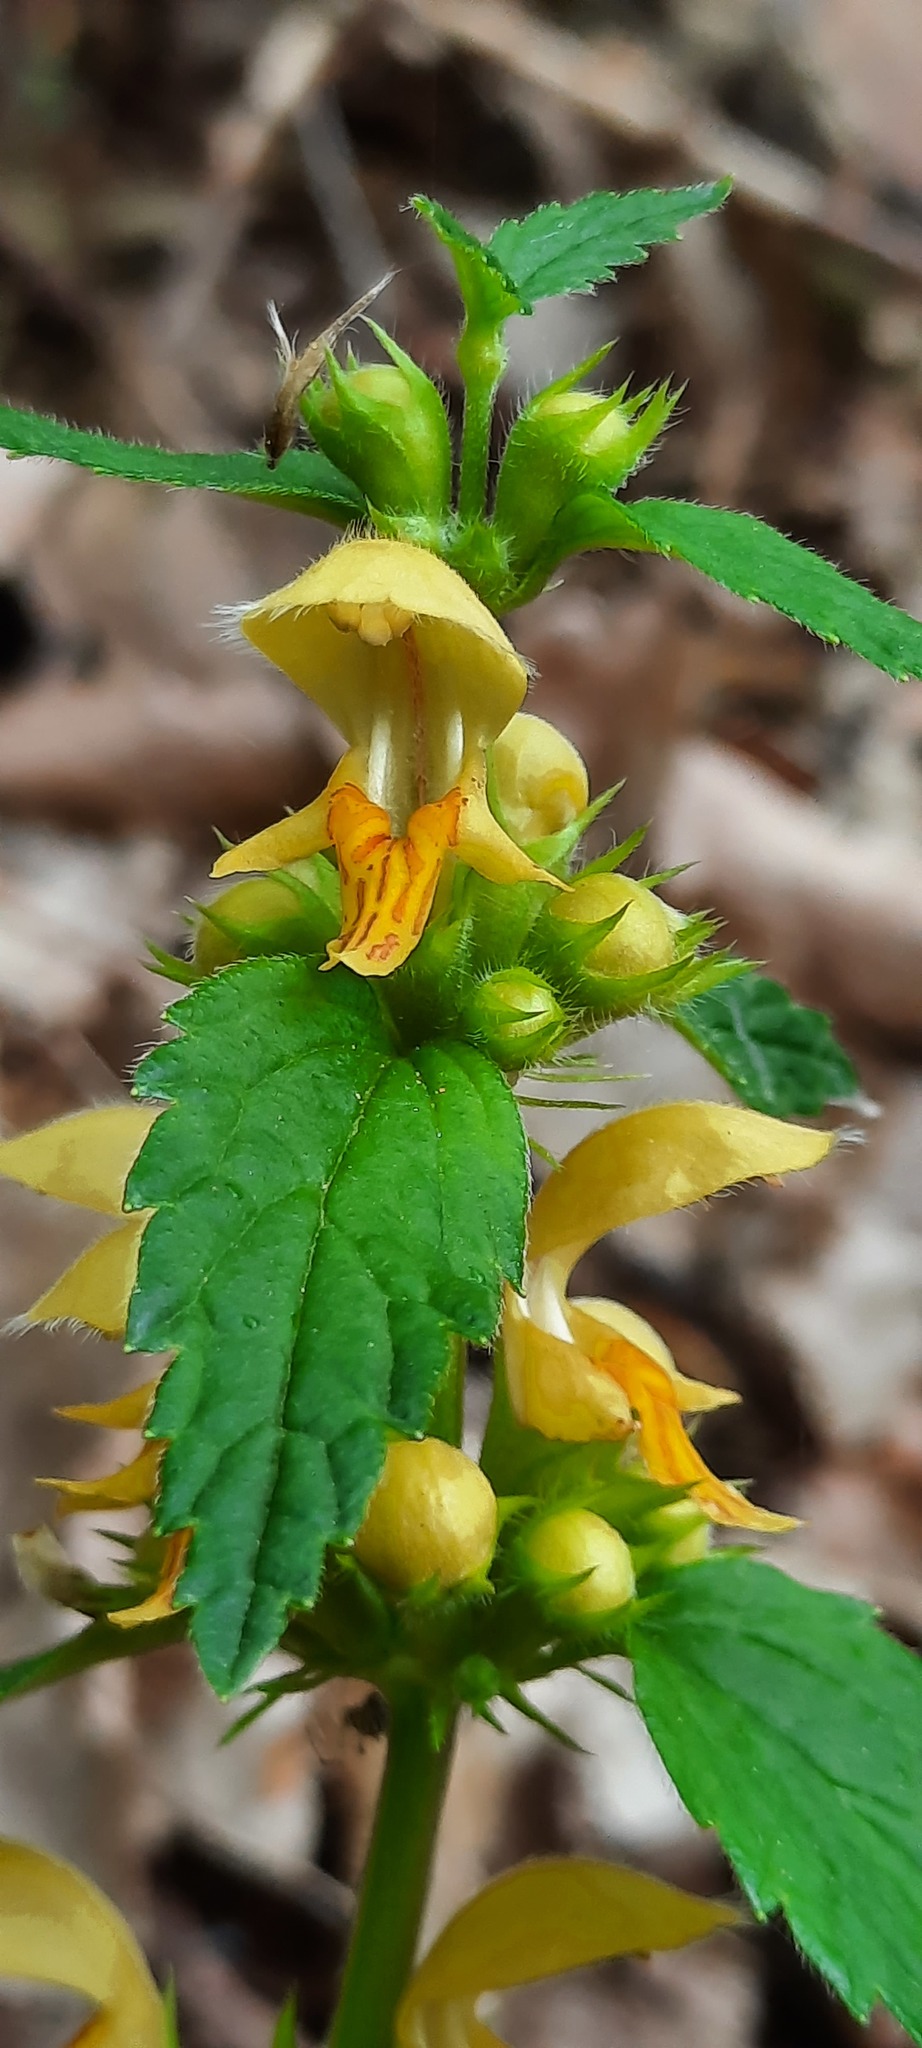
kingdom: Plantae
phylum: Tracheophyta
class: Magnoliopsida
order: Lamiales
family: Lamiaceae
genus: Lamium
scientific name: Lamium galeobdolon
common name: Yellow archangel
